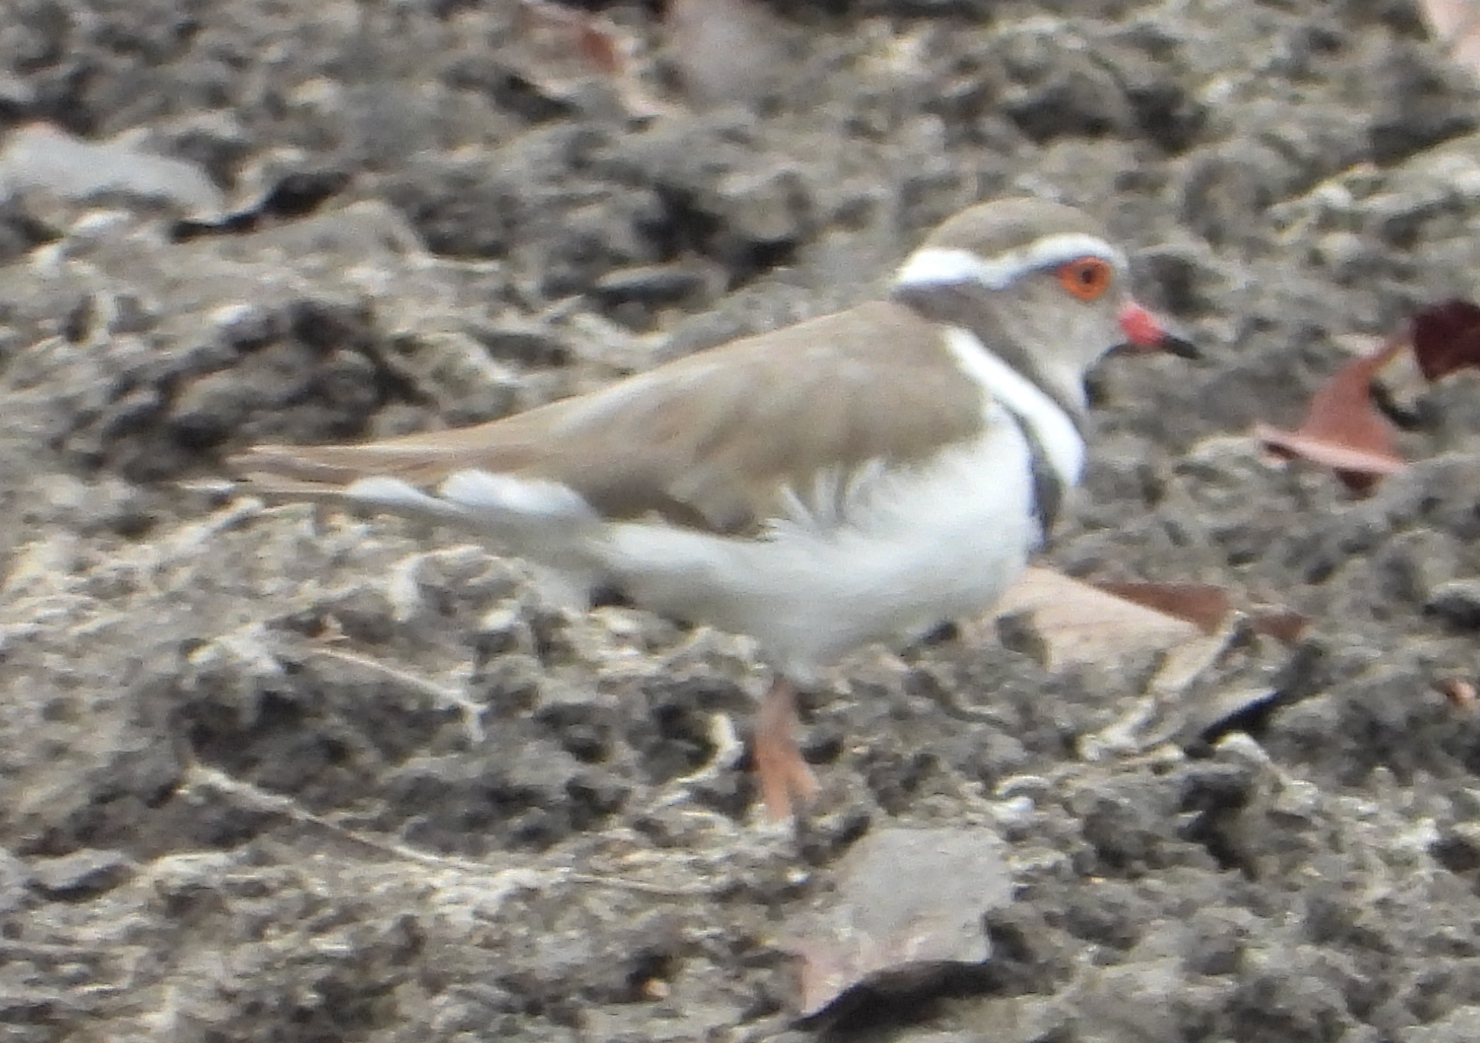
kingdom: Animalia
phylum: Chordata
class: Aves
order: Charadriiformes
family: Charadriidae
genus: Charadrius
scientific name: Charadrius tricollaris
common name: Three-banded plover
